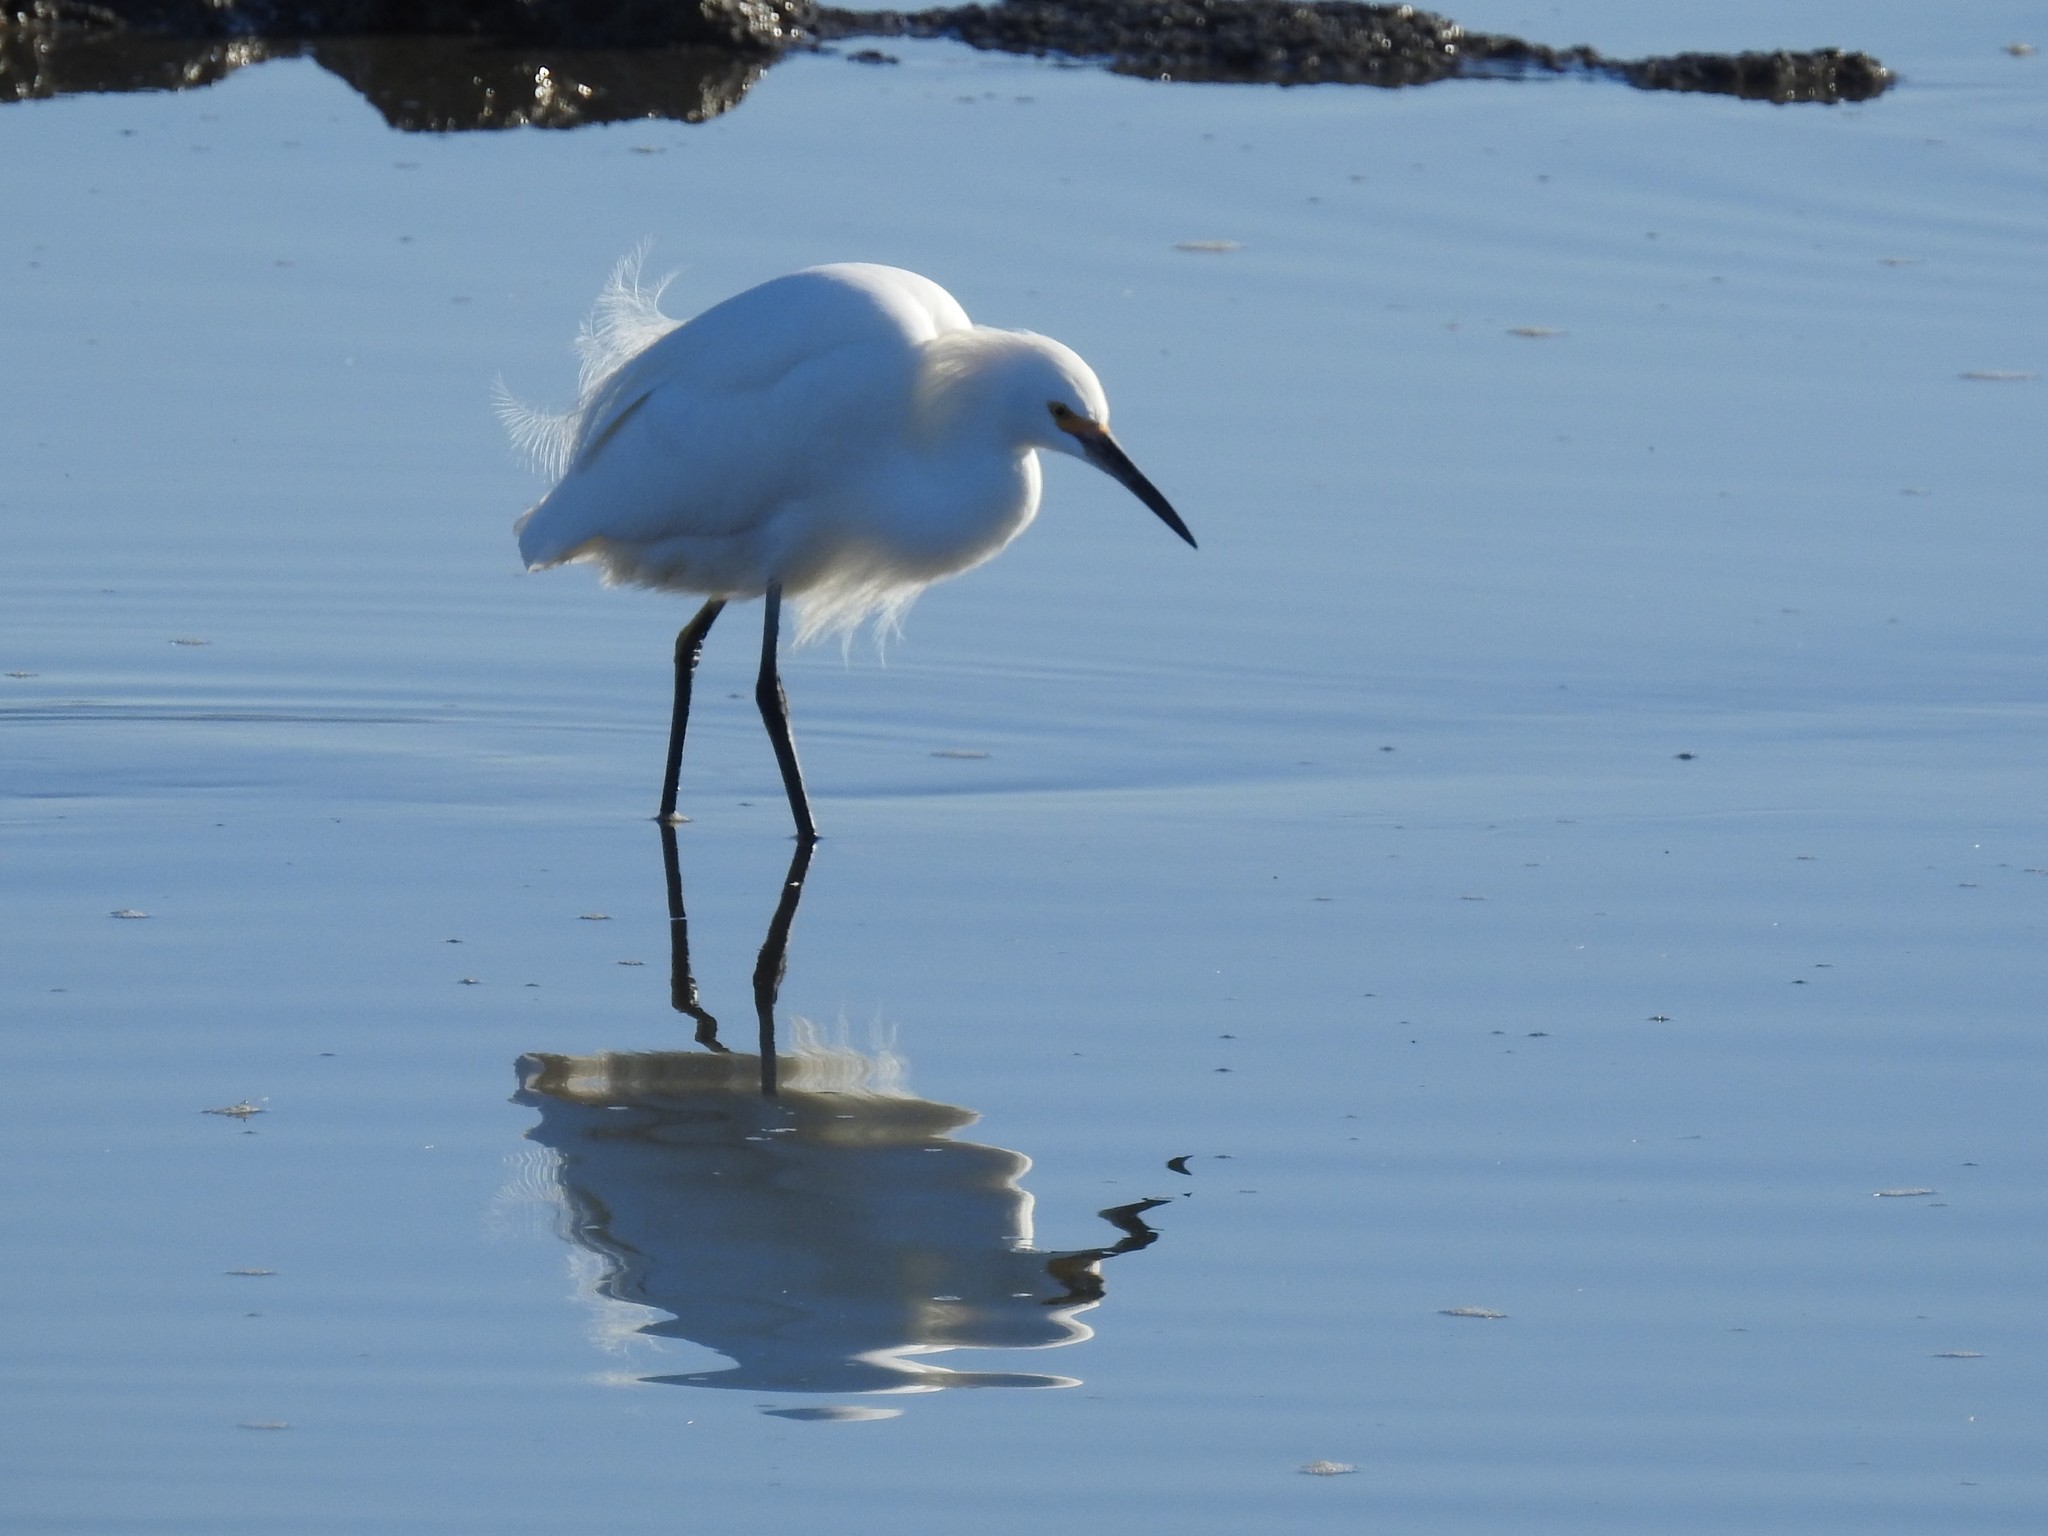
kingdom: Animalia
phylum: Chordata
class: Aves
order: Pelecaniformes
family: Ardeidae
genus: Egretta
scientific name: Egretta thula
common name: Snowy egret
